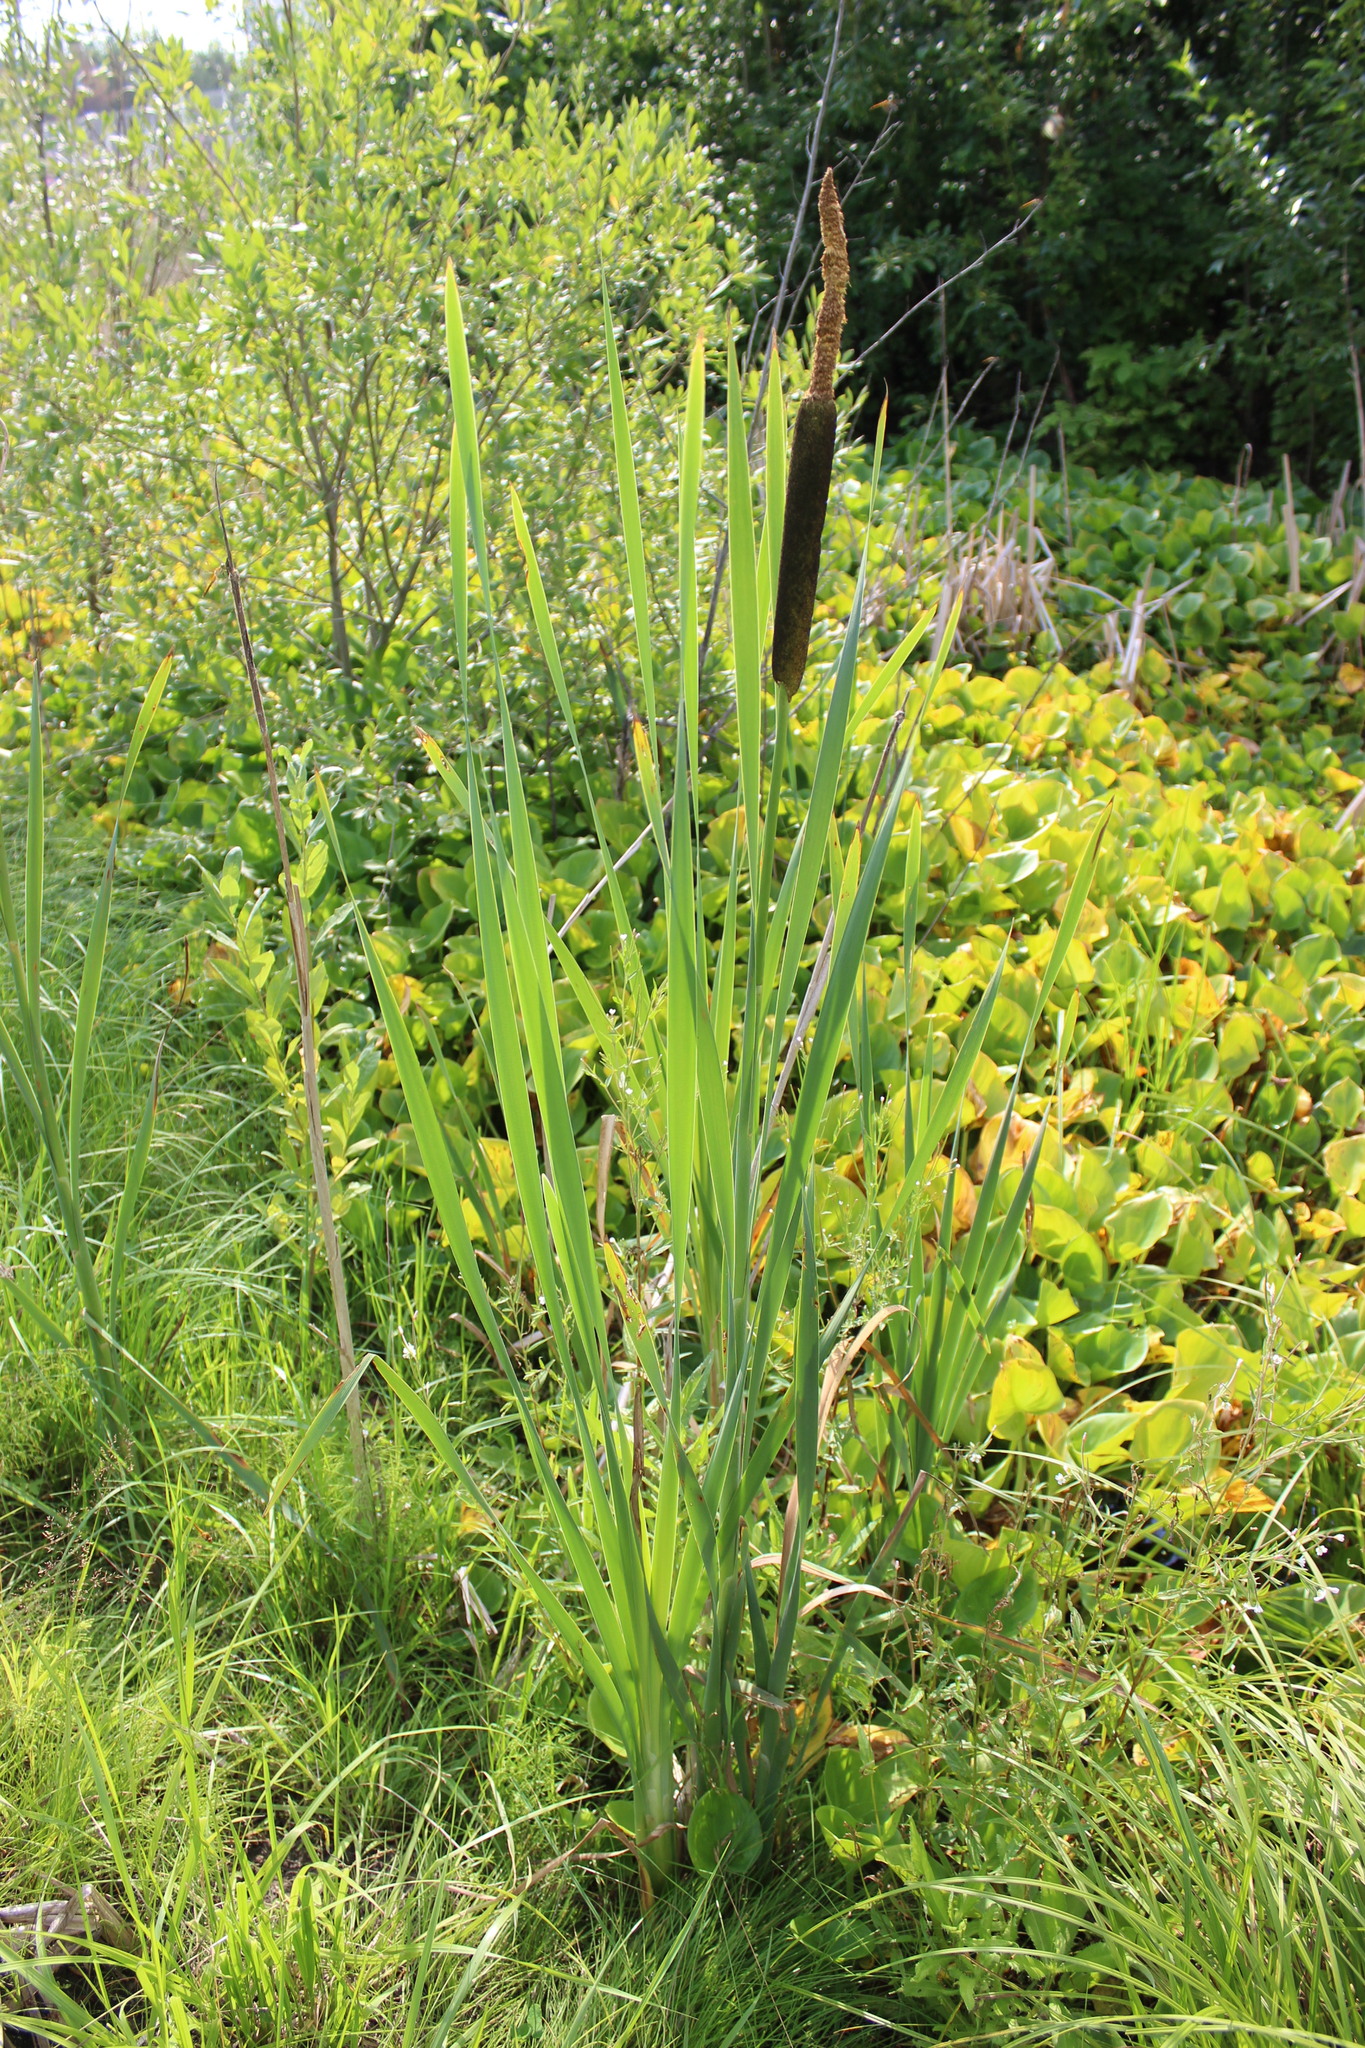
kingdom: Plantae
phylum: Tracheophyta
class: Liliopsida
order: Poales
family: Typhaceae
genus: Typha
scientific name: Typha latifolia
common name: Broadleaf cattail
